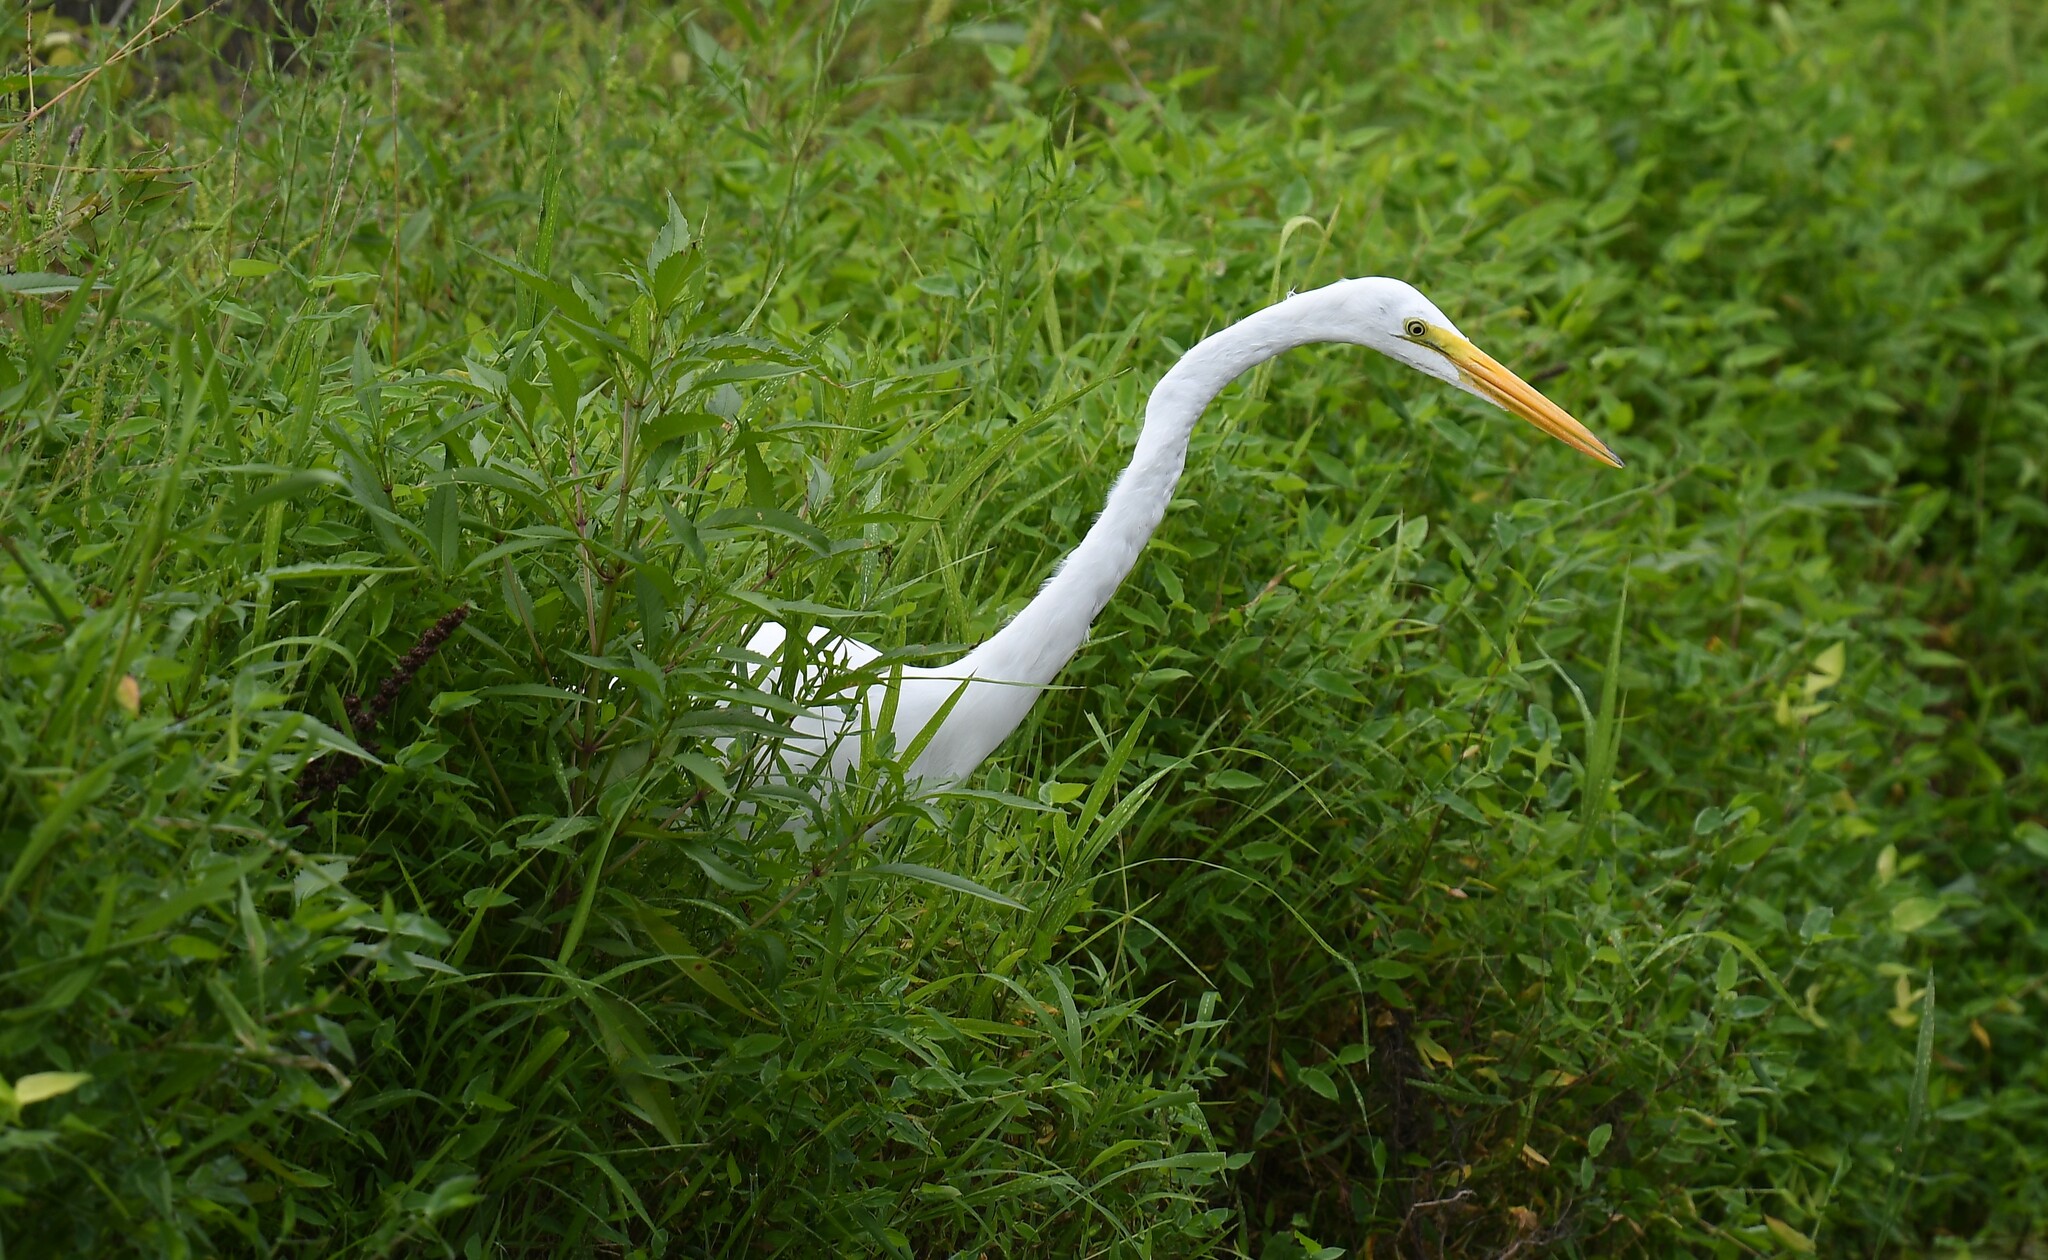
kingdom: Animalia
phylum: Chordata
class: Aves
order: Pelecaniformes
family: Ardeidae
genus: Ardea
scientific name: Ardea alba
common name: Great egret
